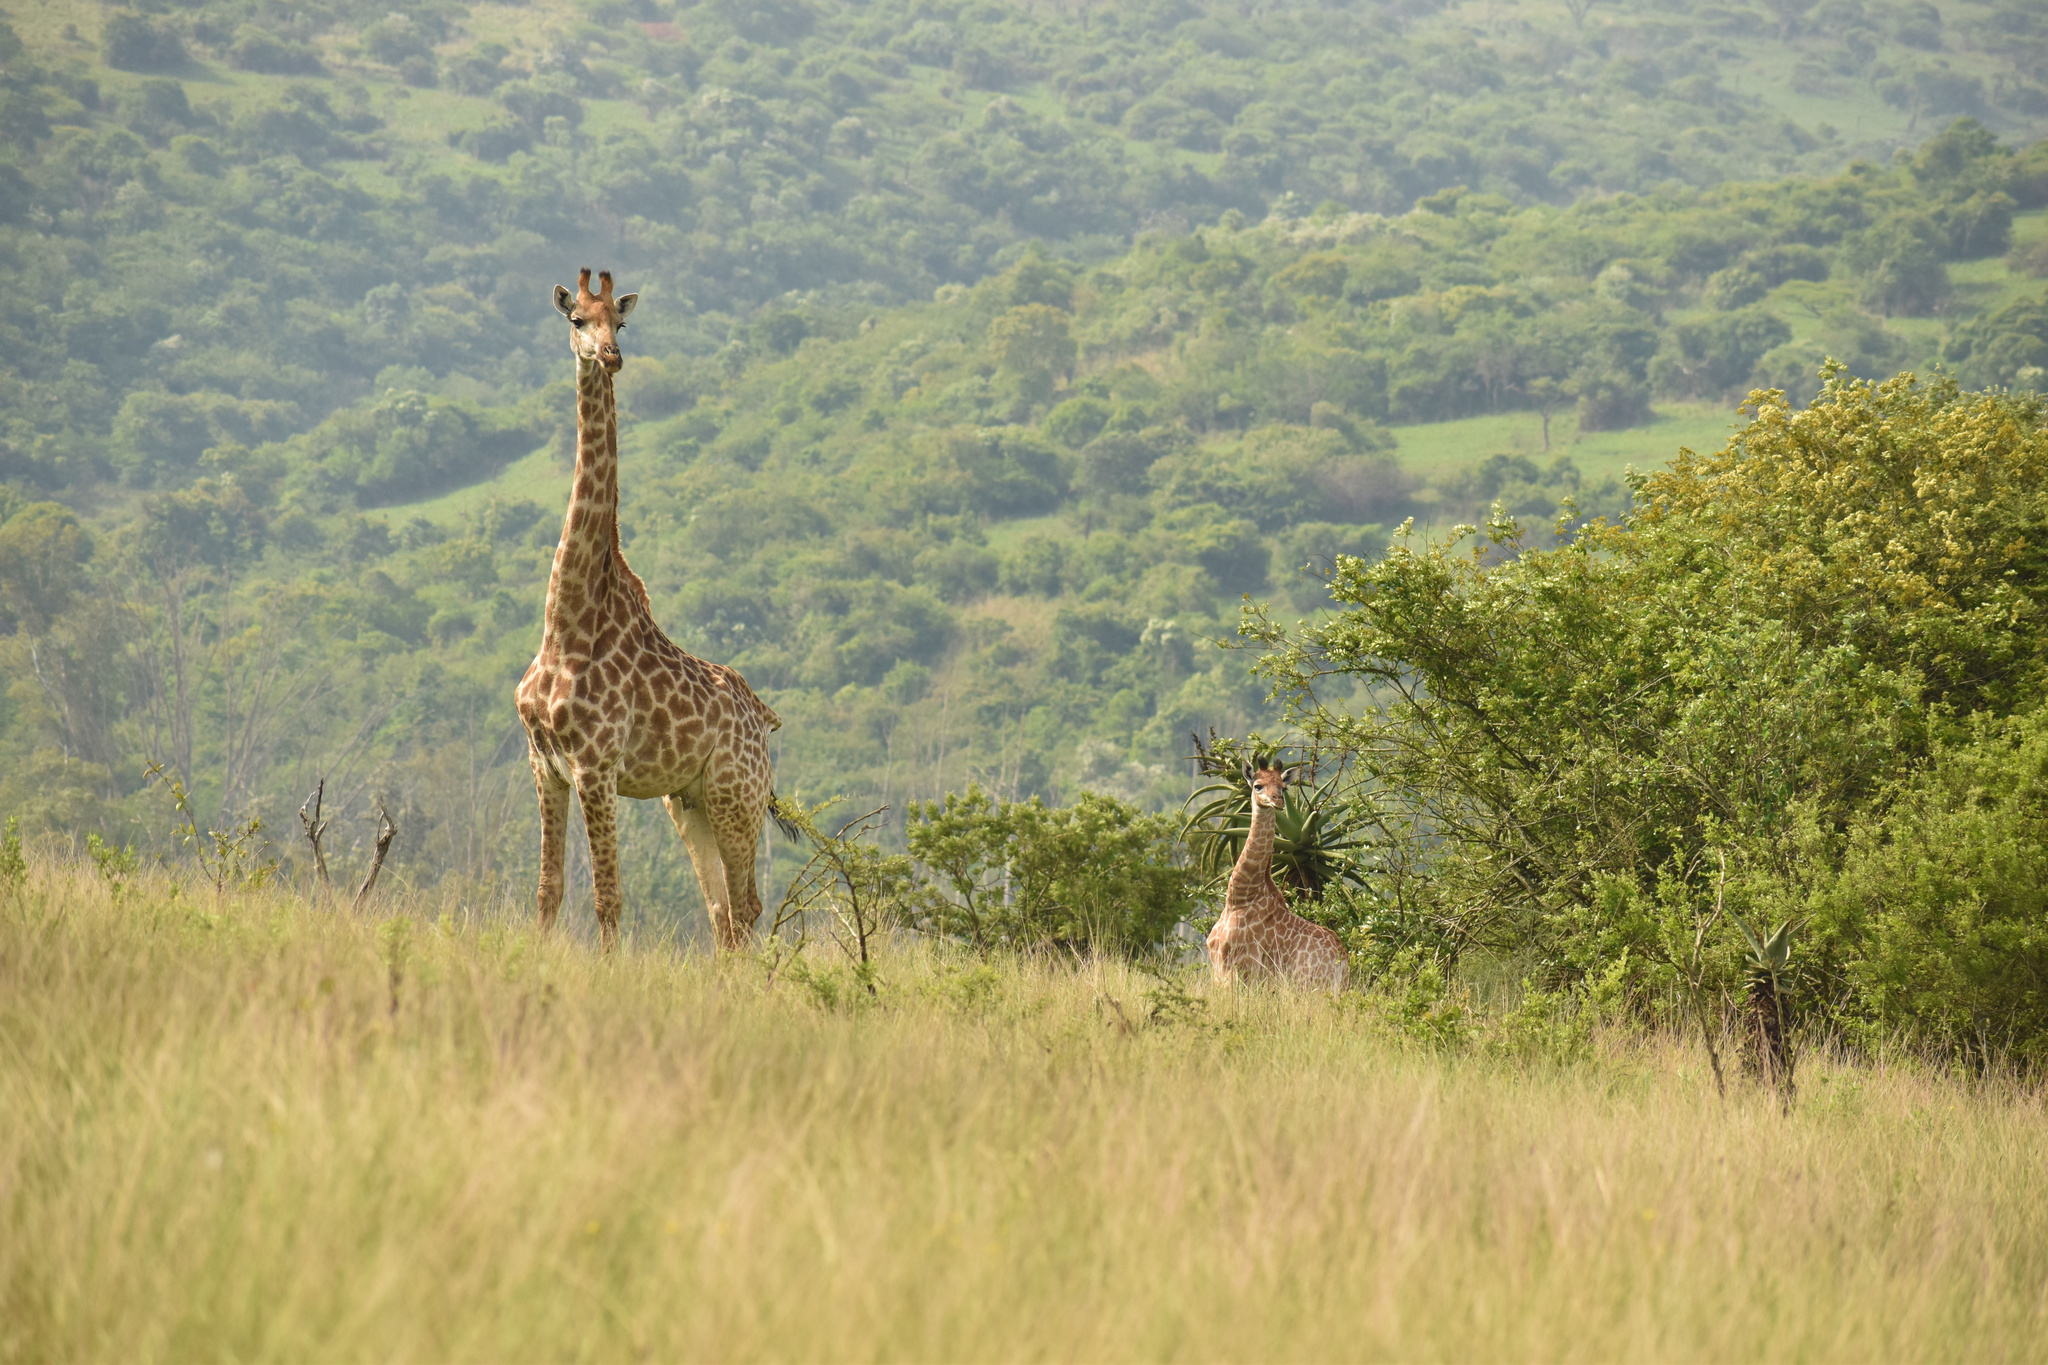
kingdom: Animalia
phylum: Chordata
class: Mammalia
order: Artiodactyla
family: Giraffidae
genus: Giraffa
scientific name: Giraffa giraffa
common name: Southern giraffe
